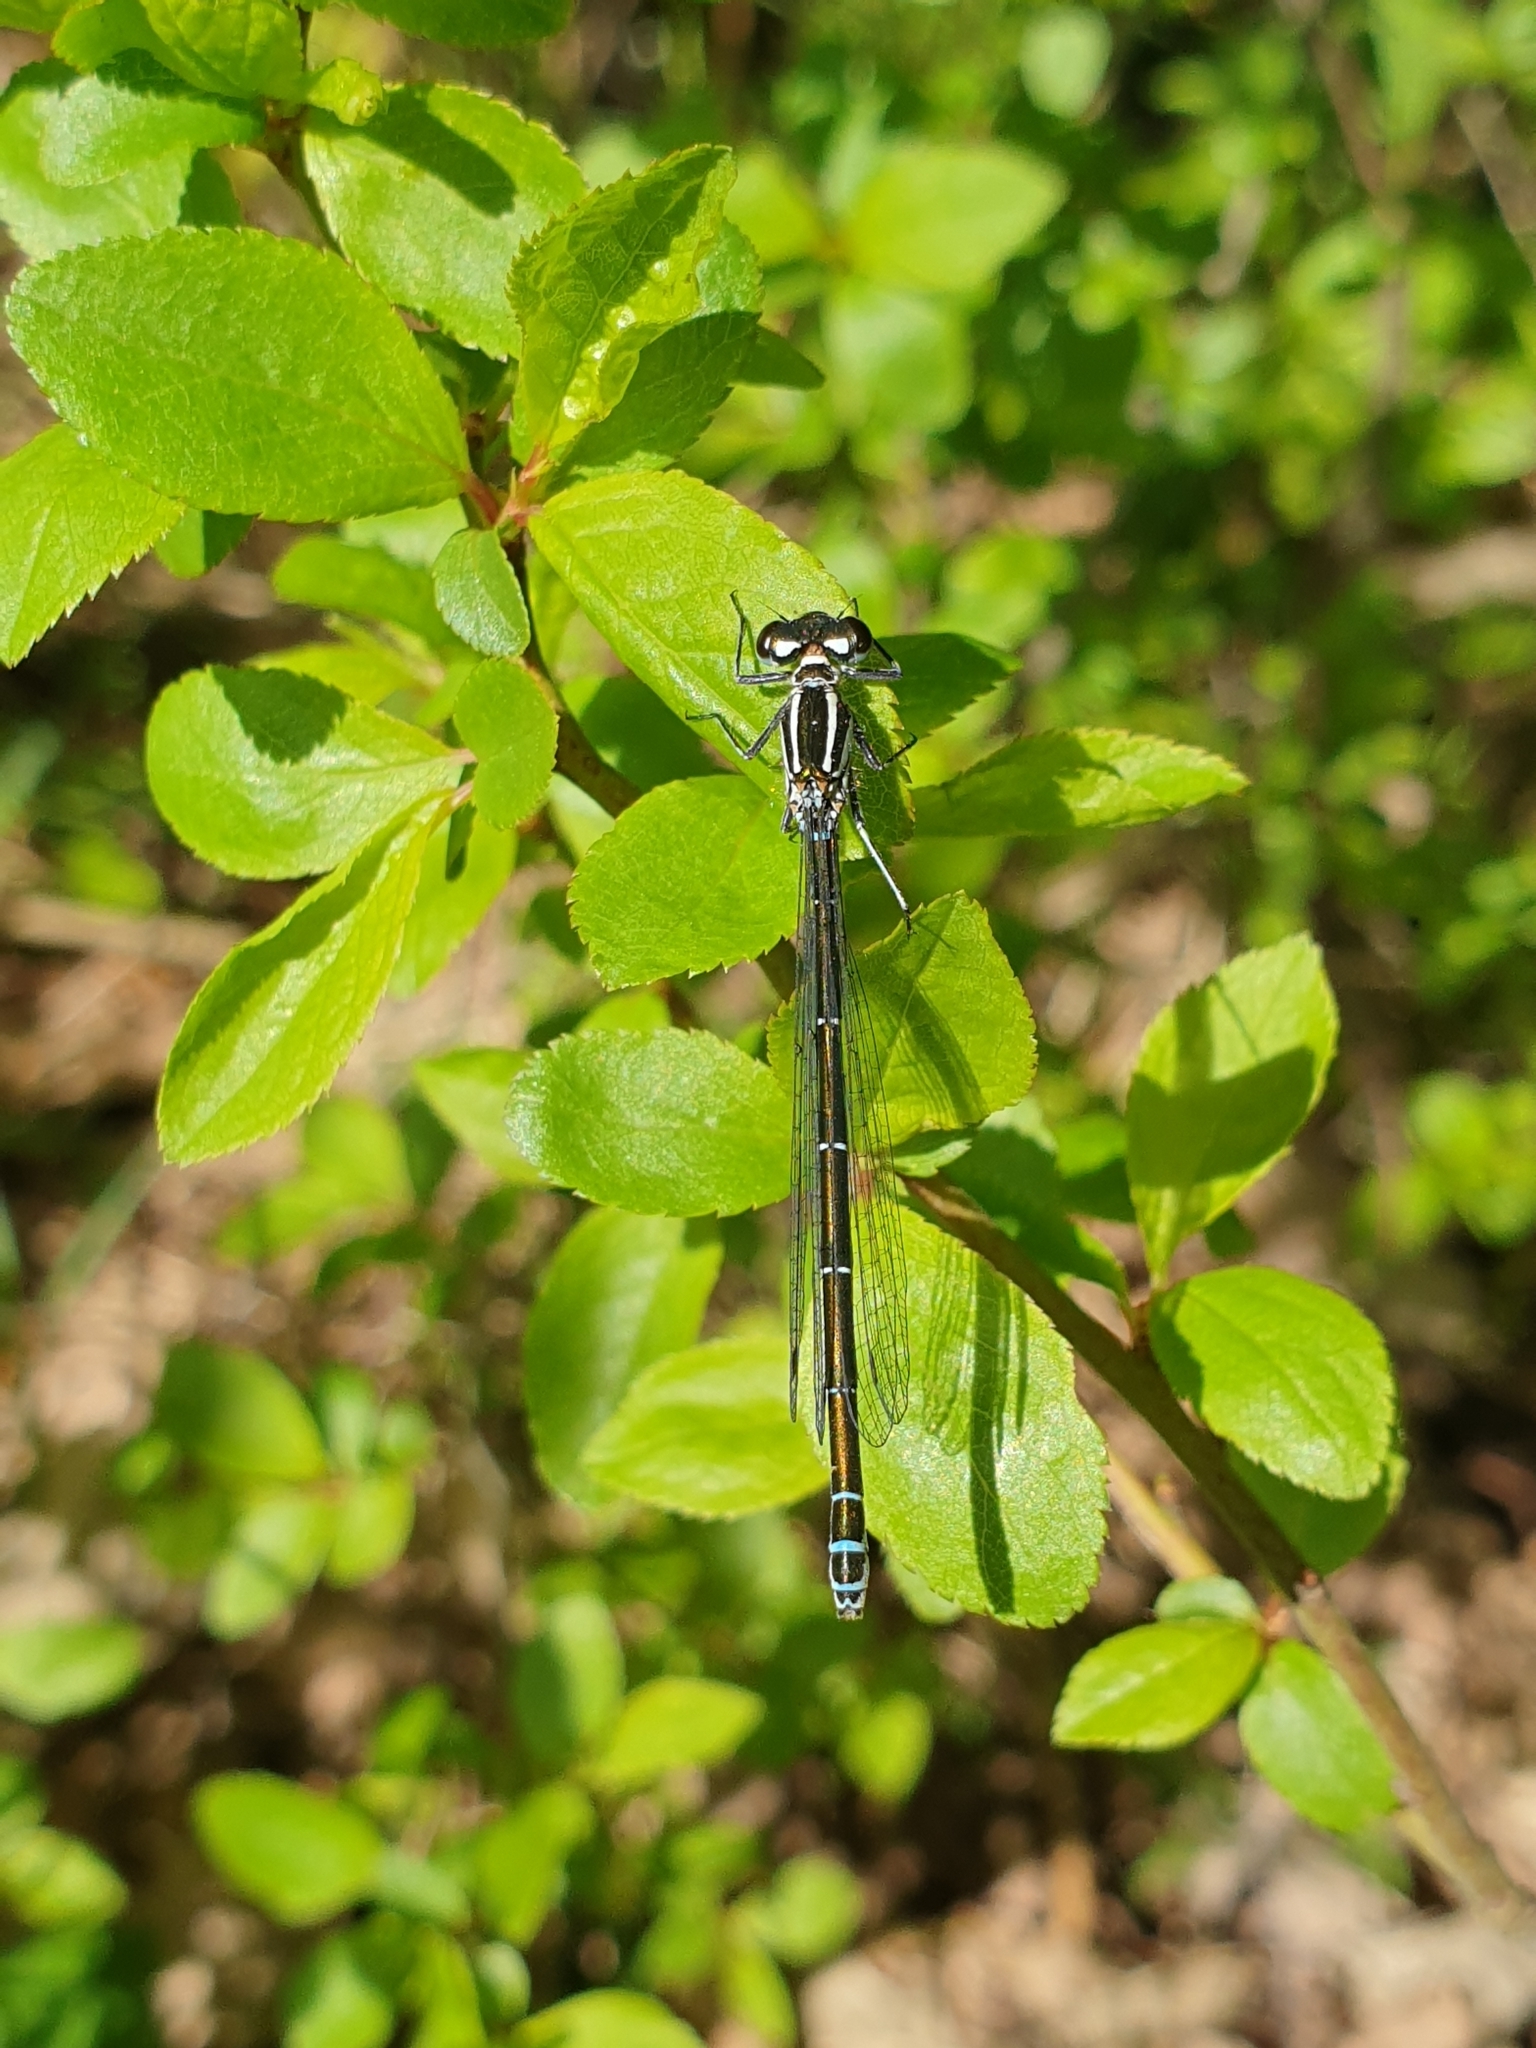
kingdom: Animalia
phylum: Arthropoda
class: Insecta
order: Odonata
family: Coenagrionidae
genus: Coenagrion
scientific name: Coenagrion puella
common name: Azure damselfly
